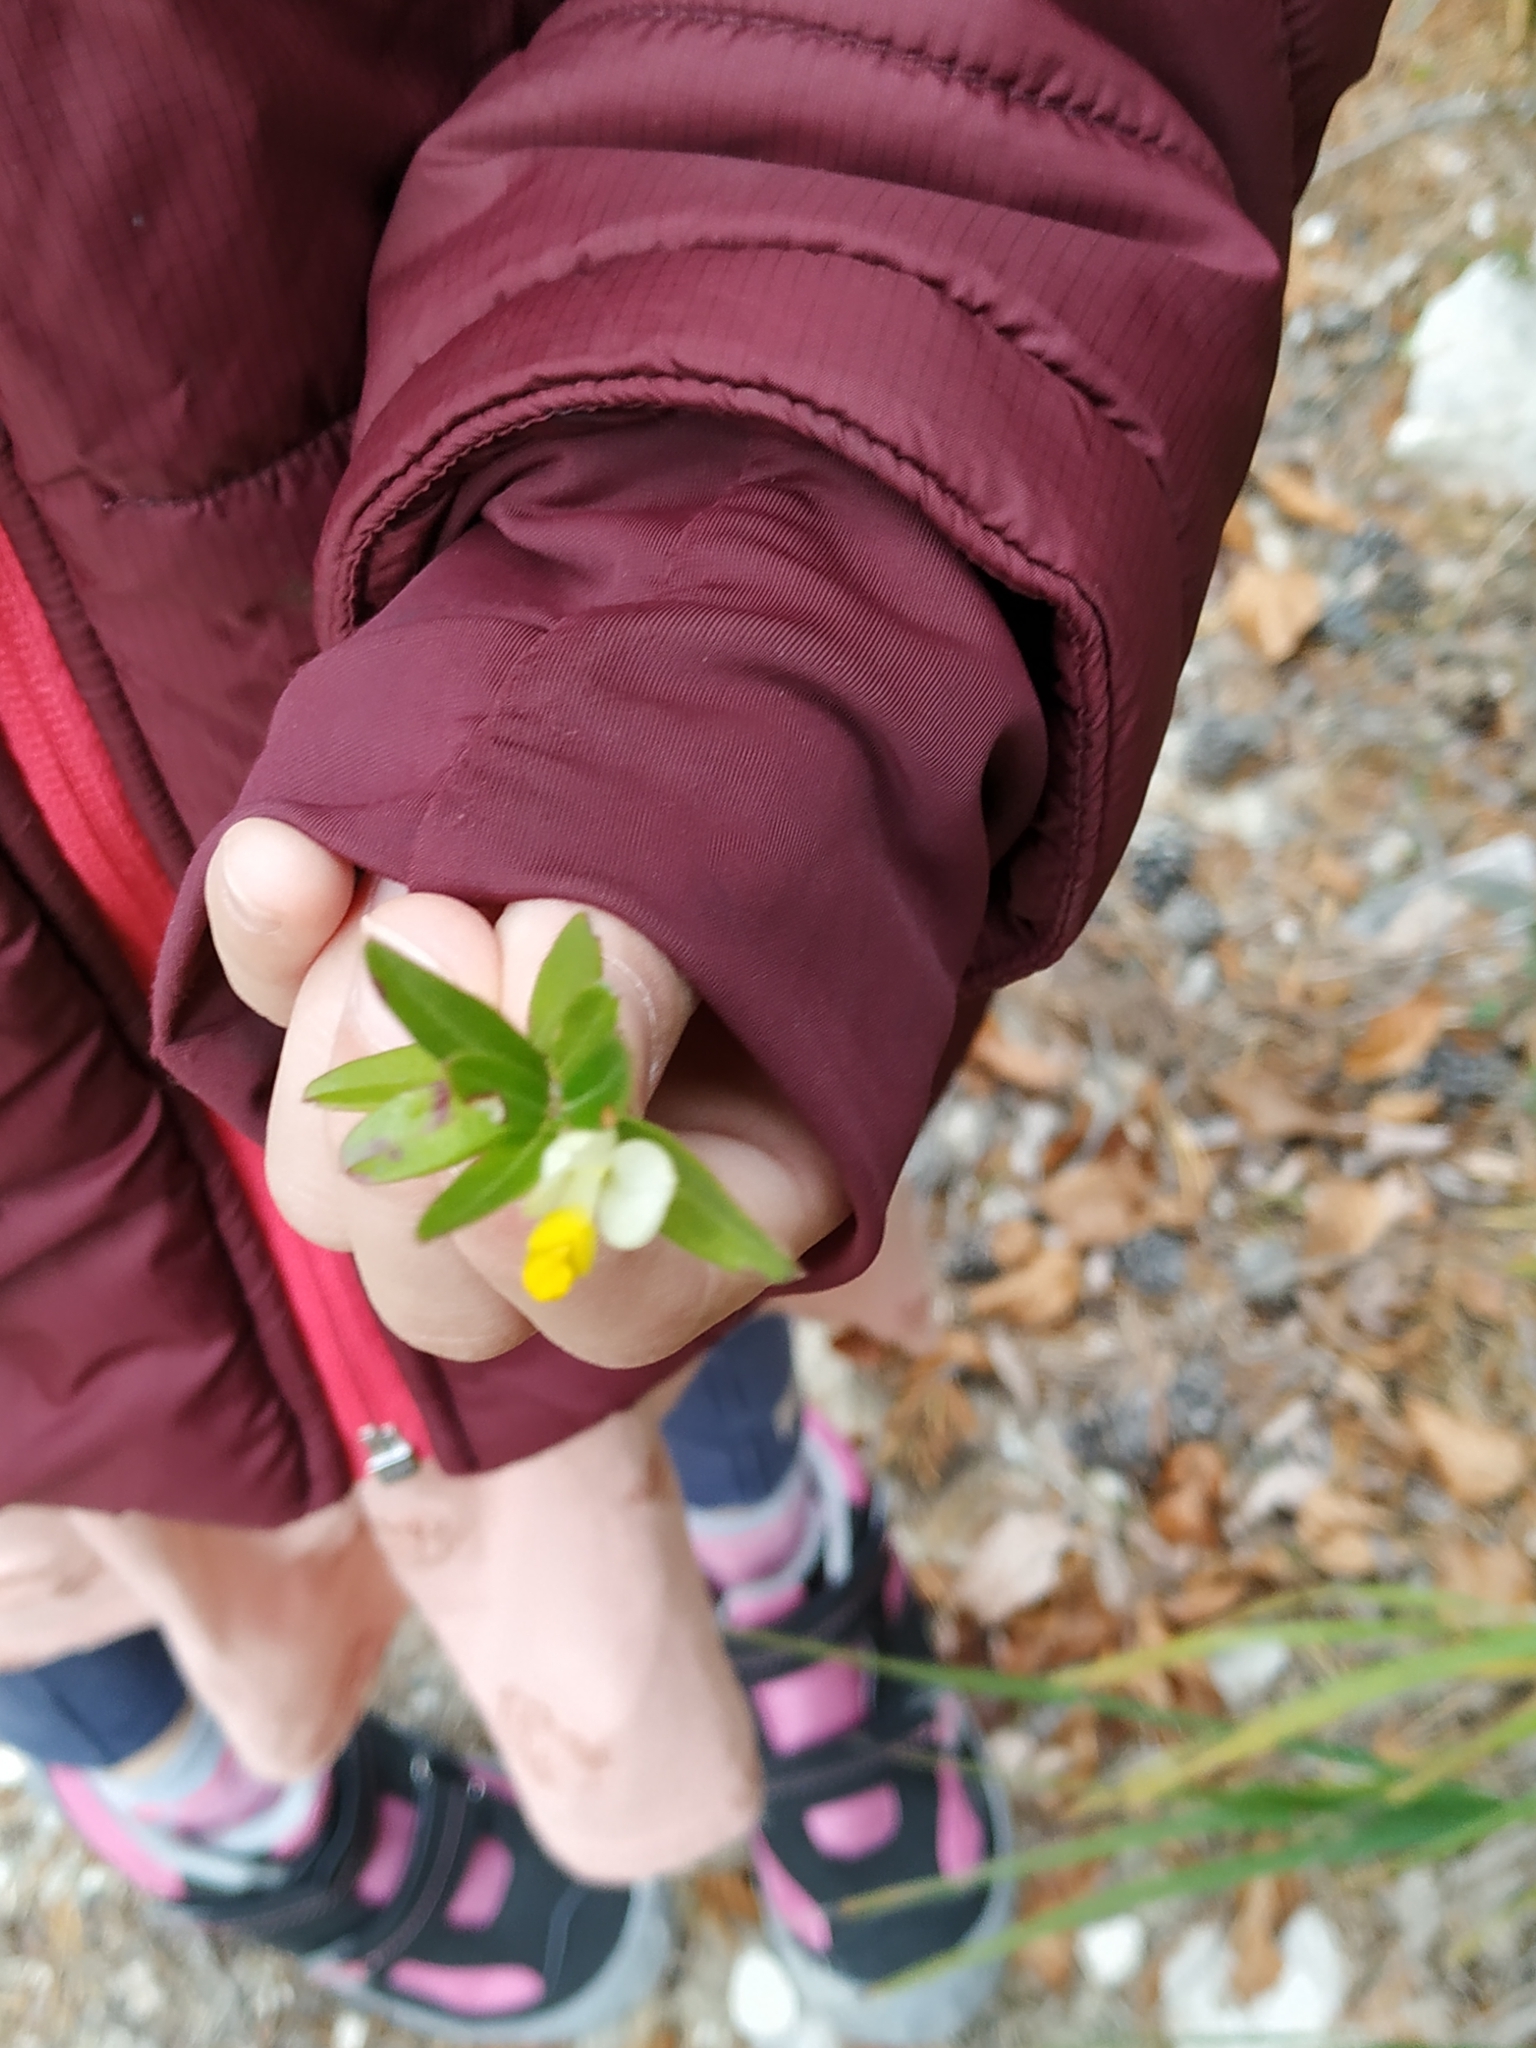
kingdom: Plantae
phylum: Tracheophyta
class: Magnoliopsida
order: Fabales
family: Polygalaceae
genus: Polygaloides
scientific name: Polygaloides chamaebuxus
